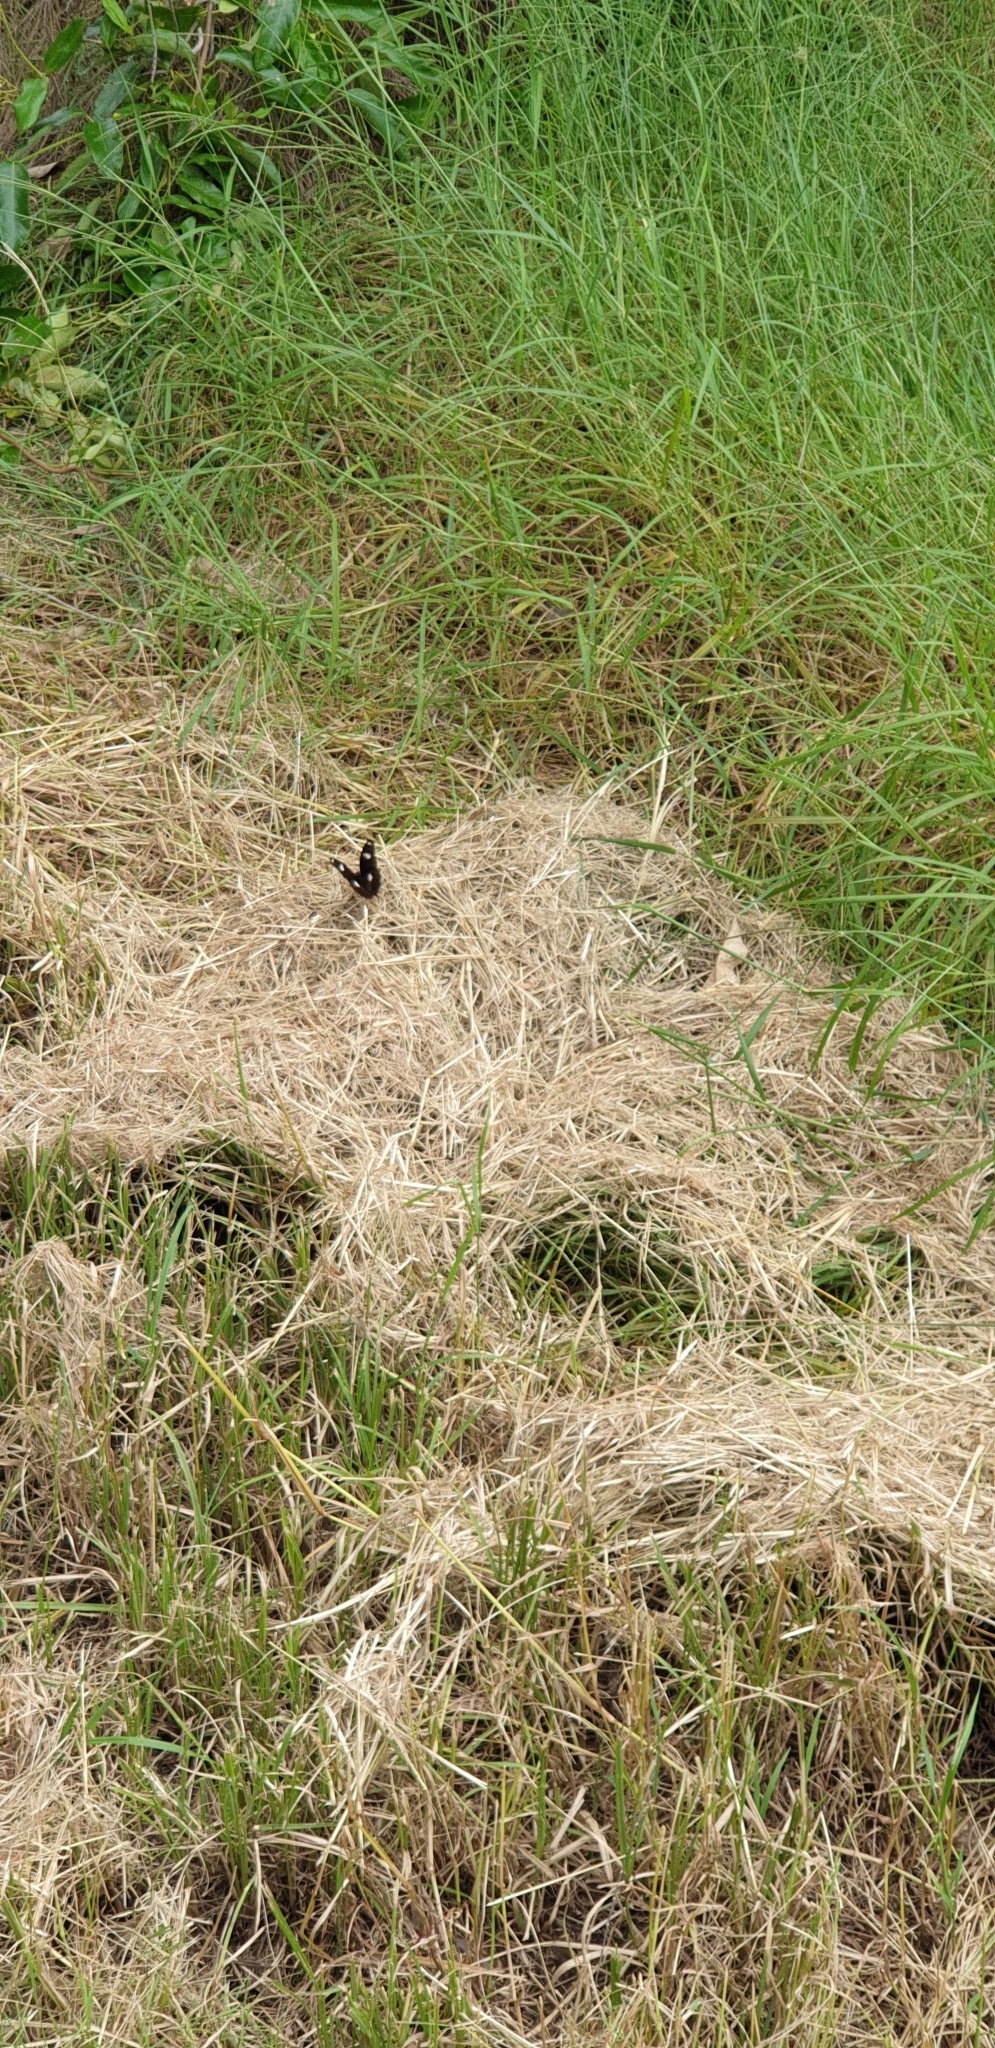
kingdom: Animalia
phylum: Arthropoda
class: Insecta
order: Lepidoptera
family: Nymphalidae
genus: Hypolimnas
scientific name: Hypolimnas bolina
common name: Great eggfly
